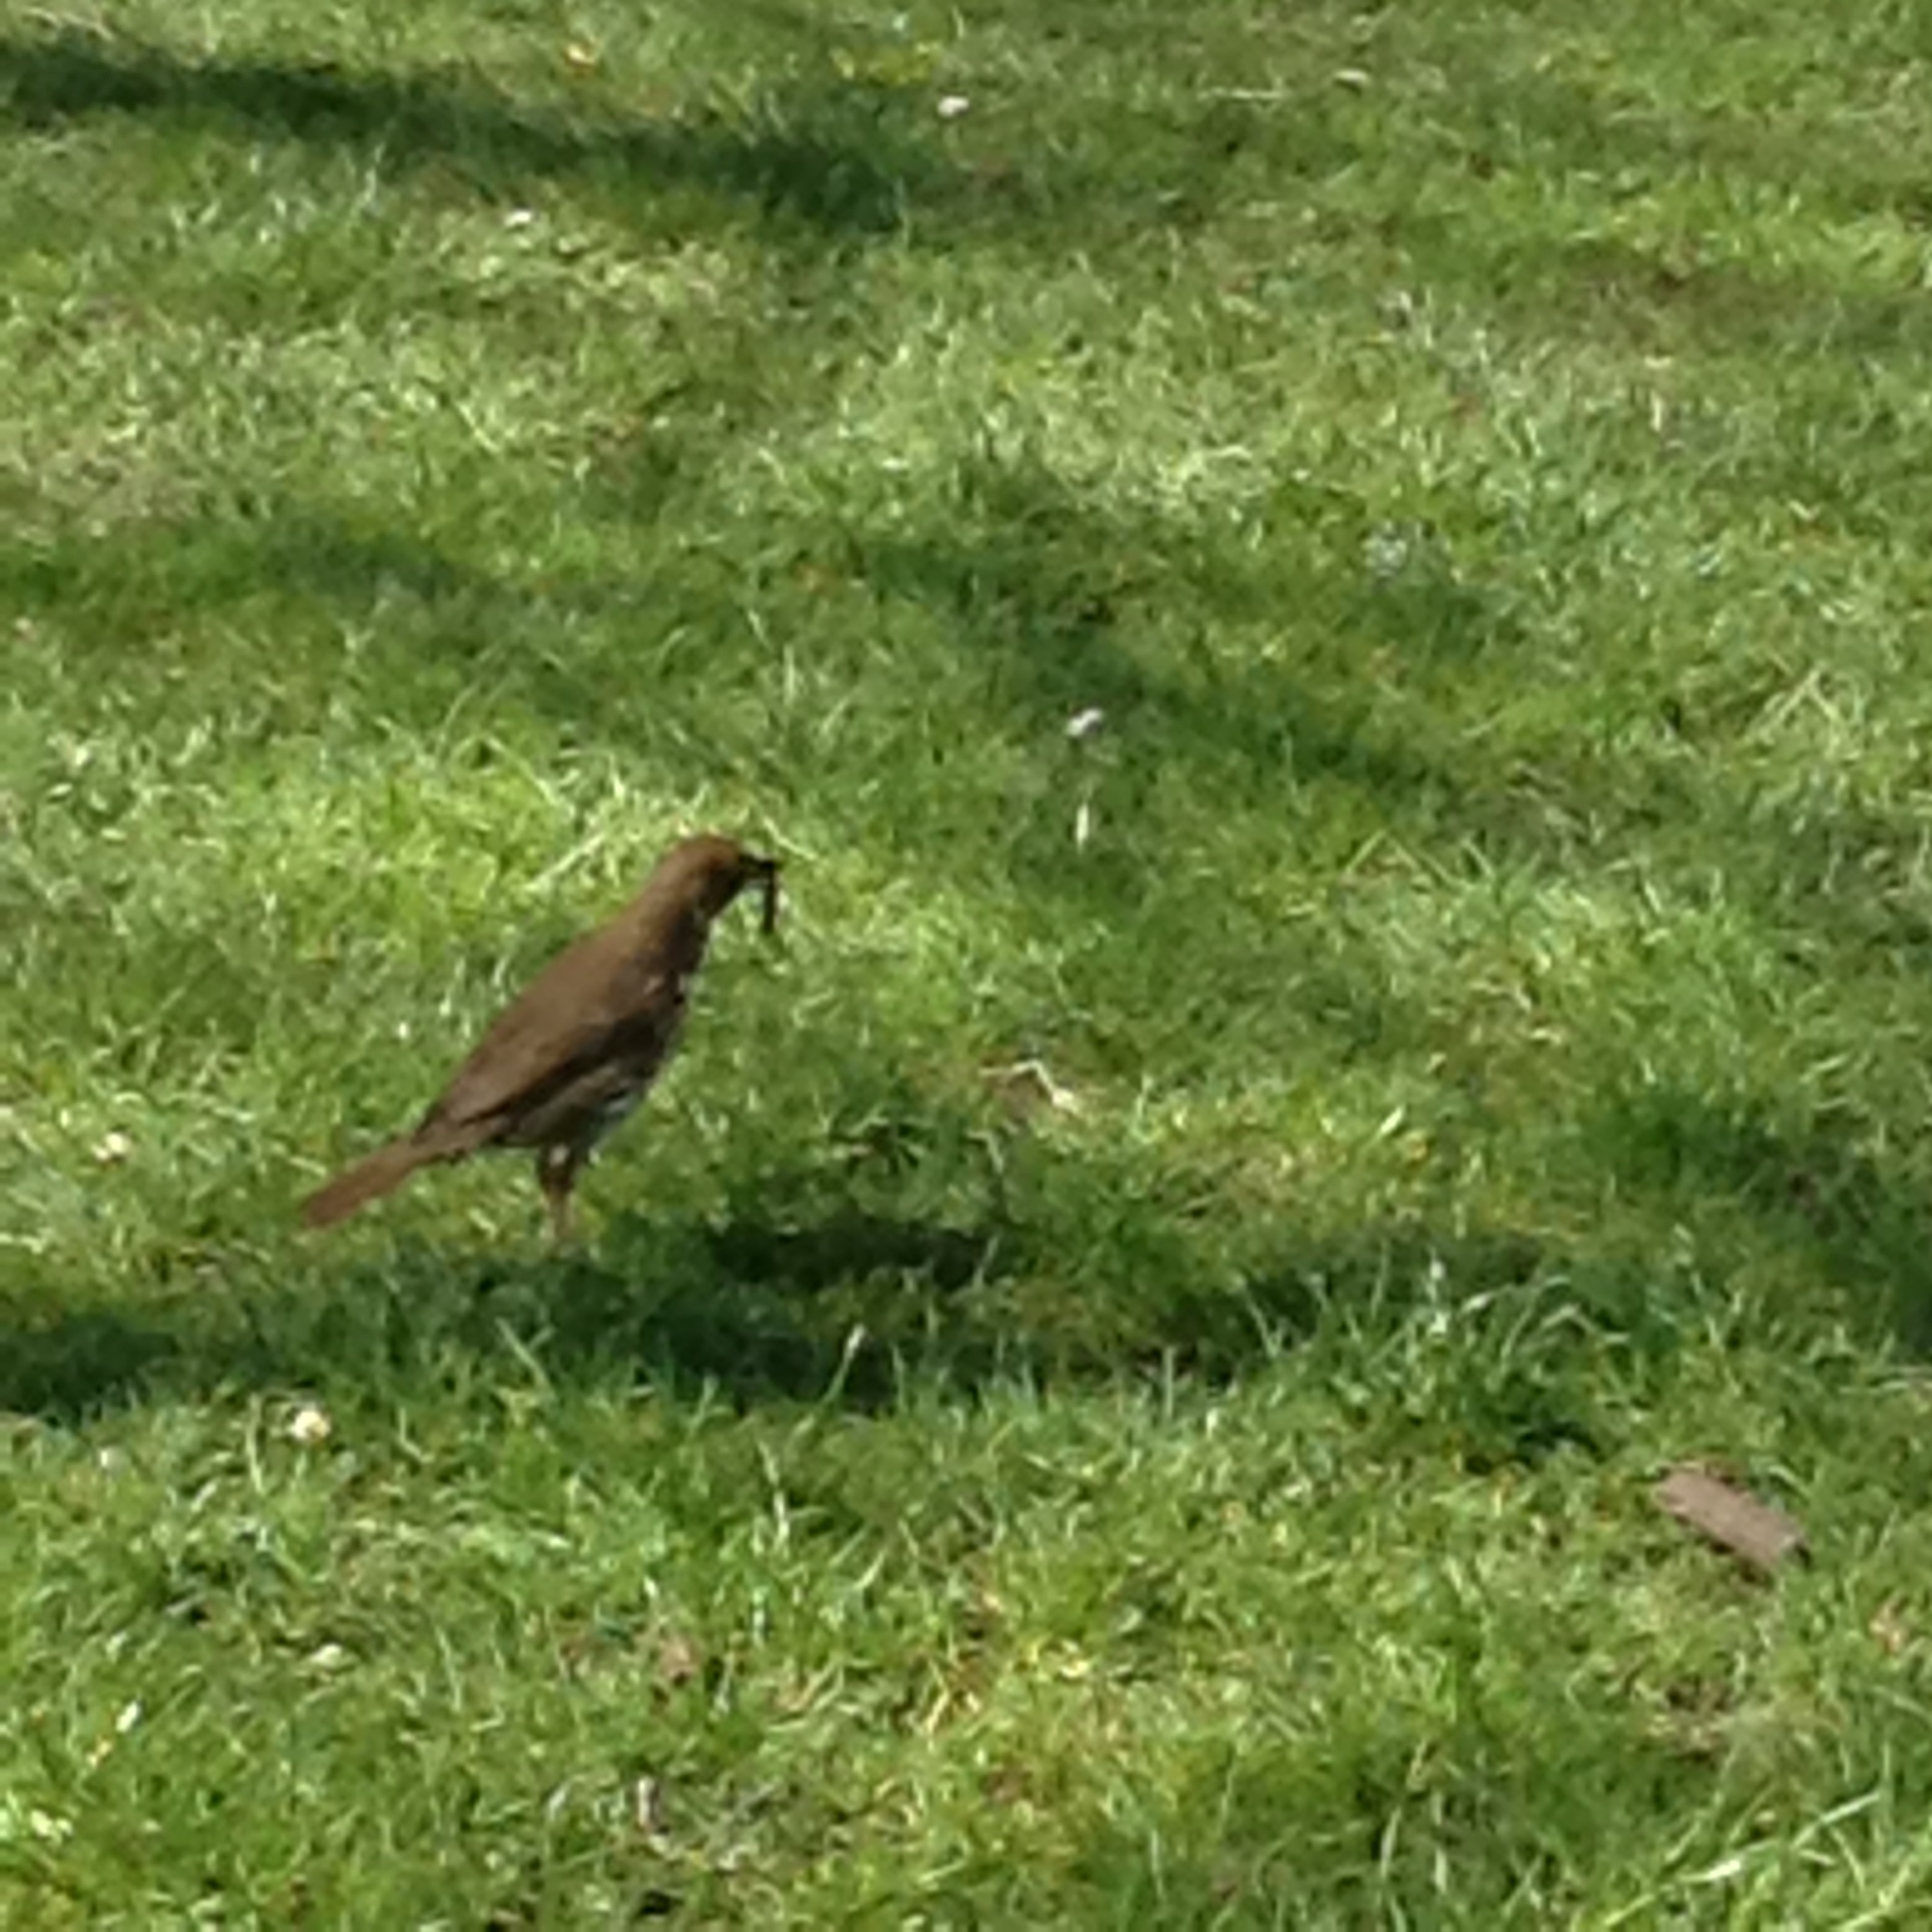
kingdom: Animalia
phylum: Chordata
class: Aves
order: Passeriformes
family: Turdidae
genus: Turdus
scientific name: Turdus philomelos
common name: Song thrush
